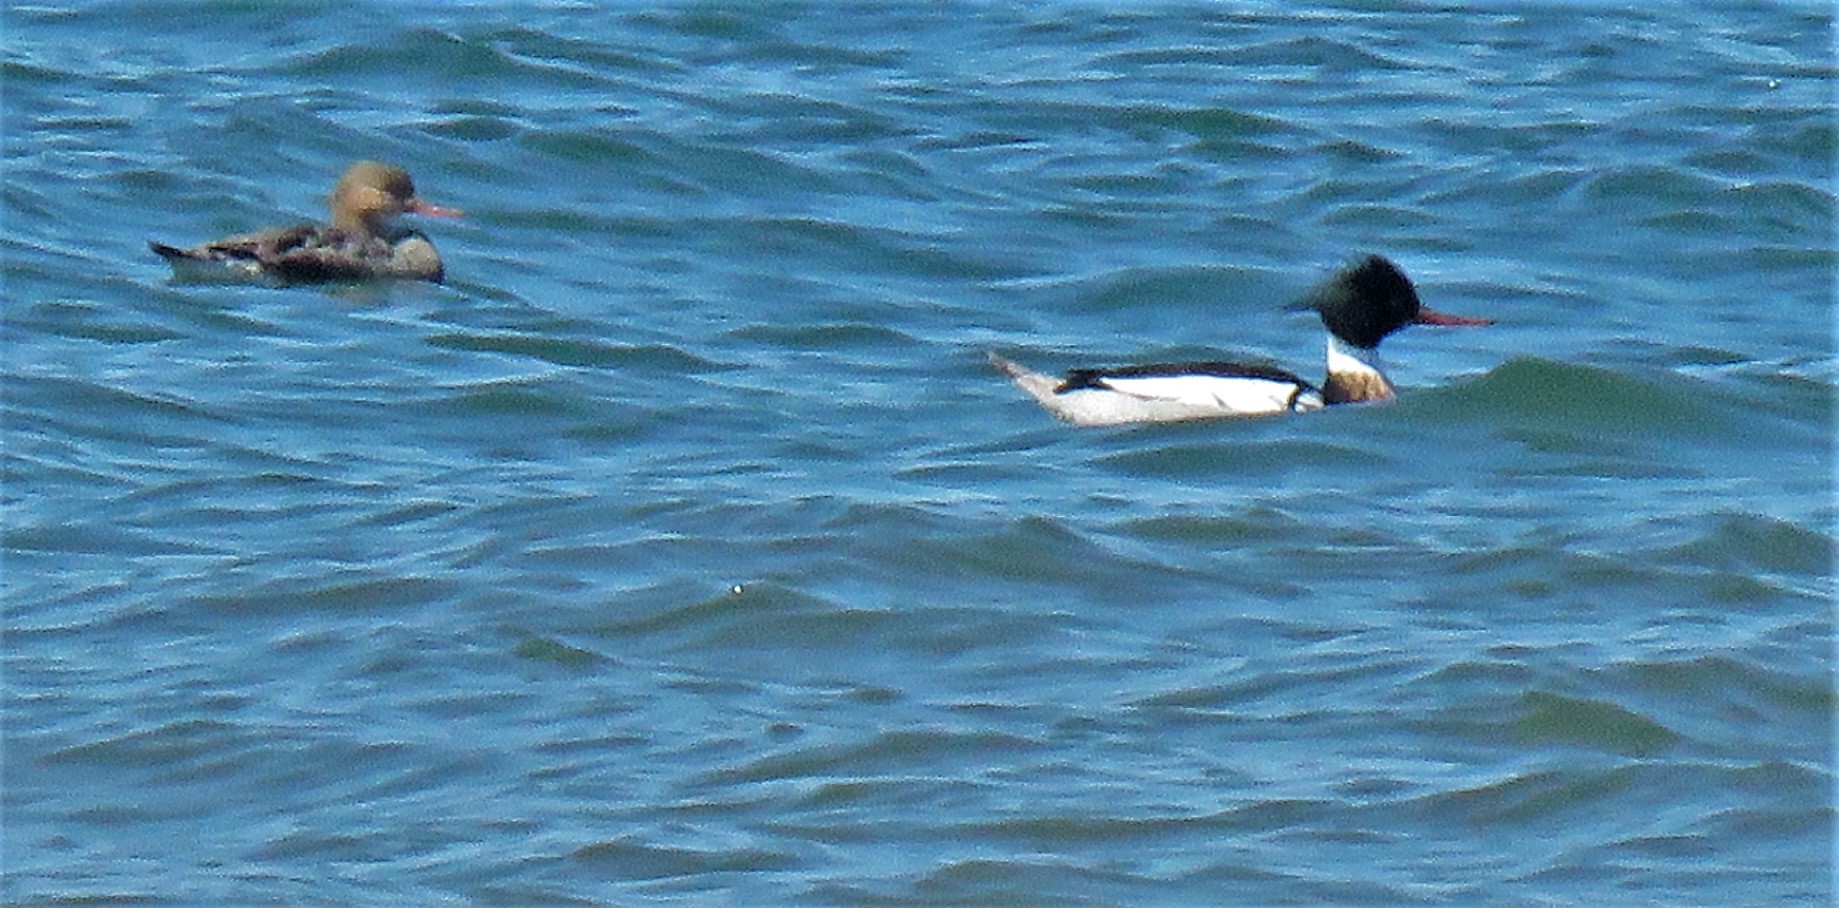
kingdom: Animalia
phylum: Chordata
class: Aves
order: Anseriformes
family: Anatidae
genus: Mergus
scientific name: Mergus serrator
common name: Red-breasted merganser
